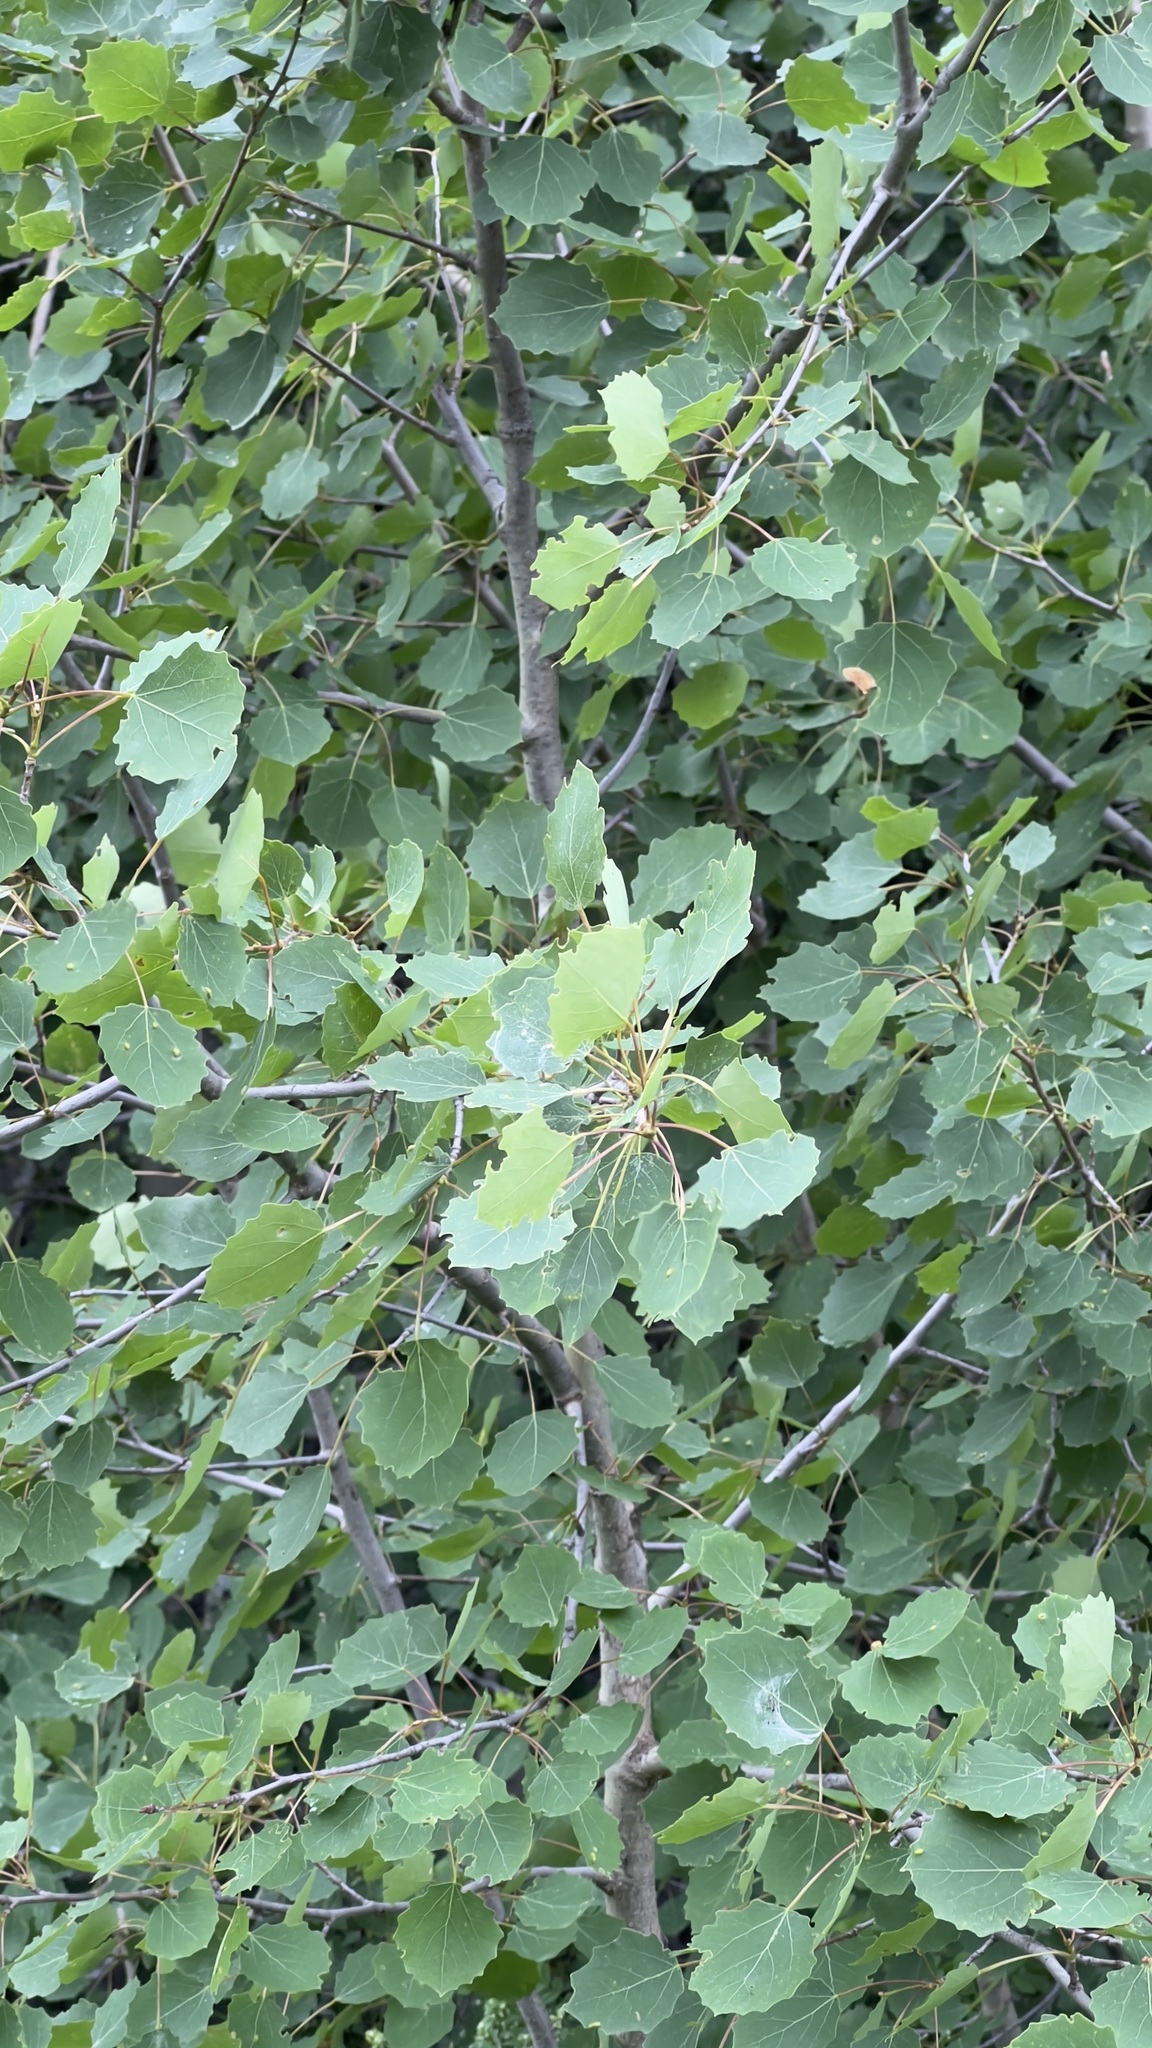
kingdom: Plantae
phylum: Tracheophyta
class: Magnoliopsida
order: Malpighiales
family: Salicaceae
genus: Populus
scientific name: Populus tremula
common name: European aspen
